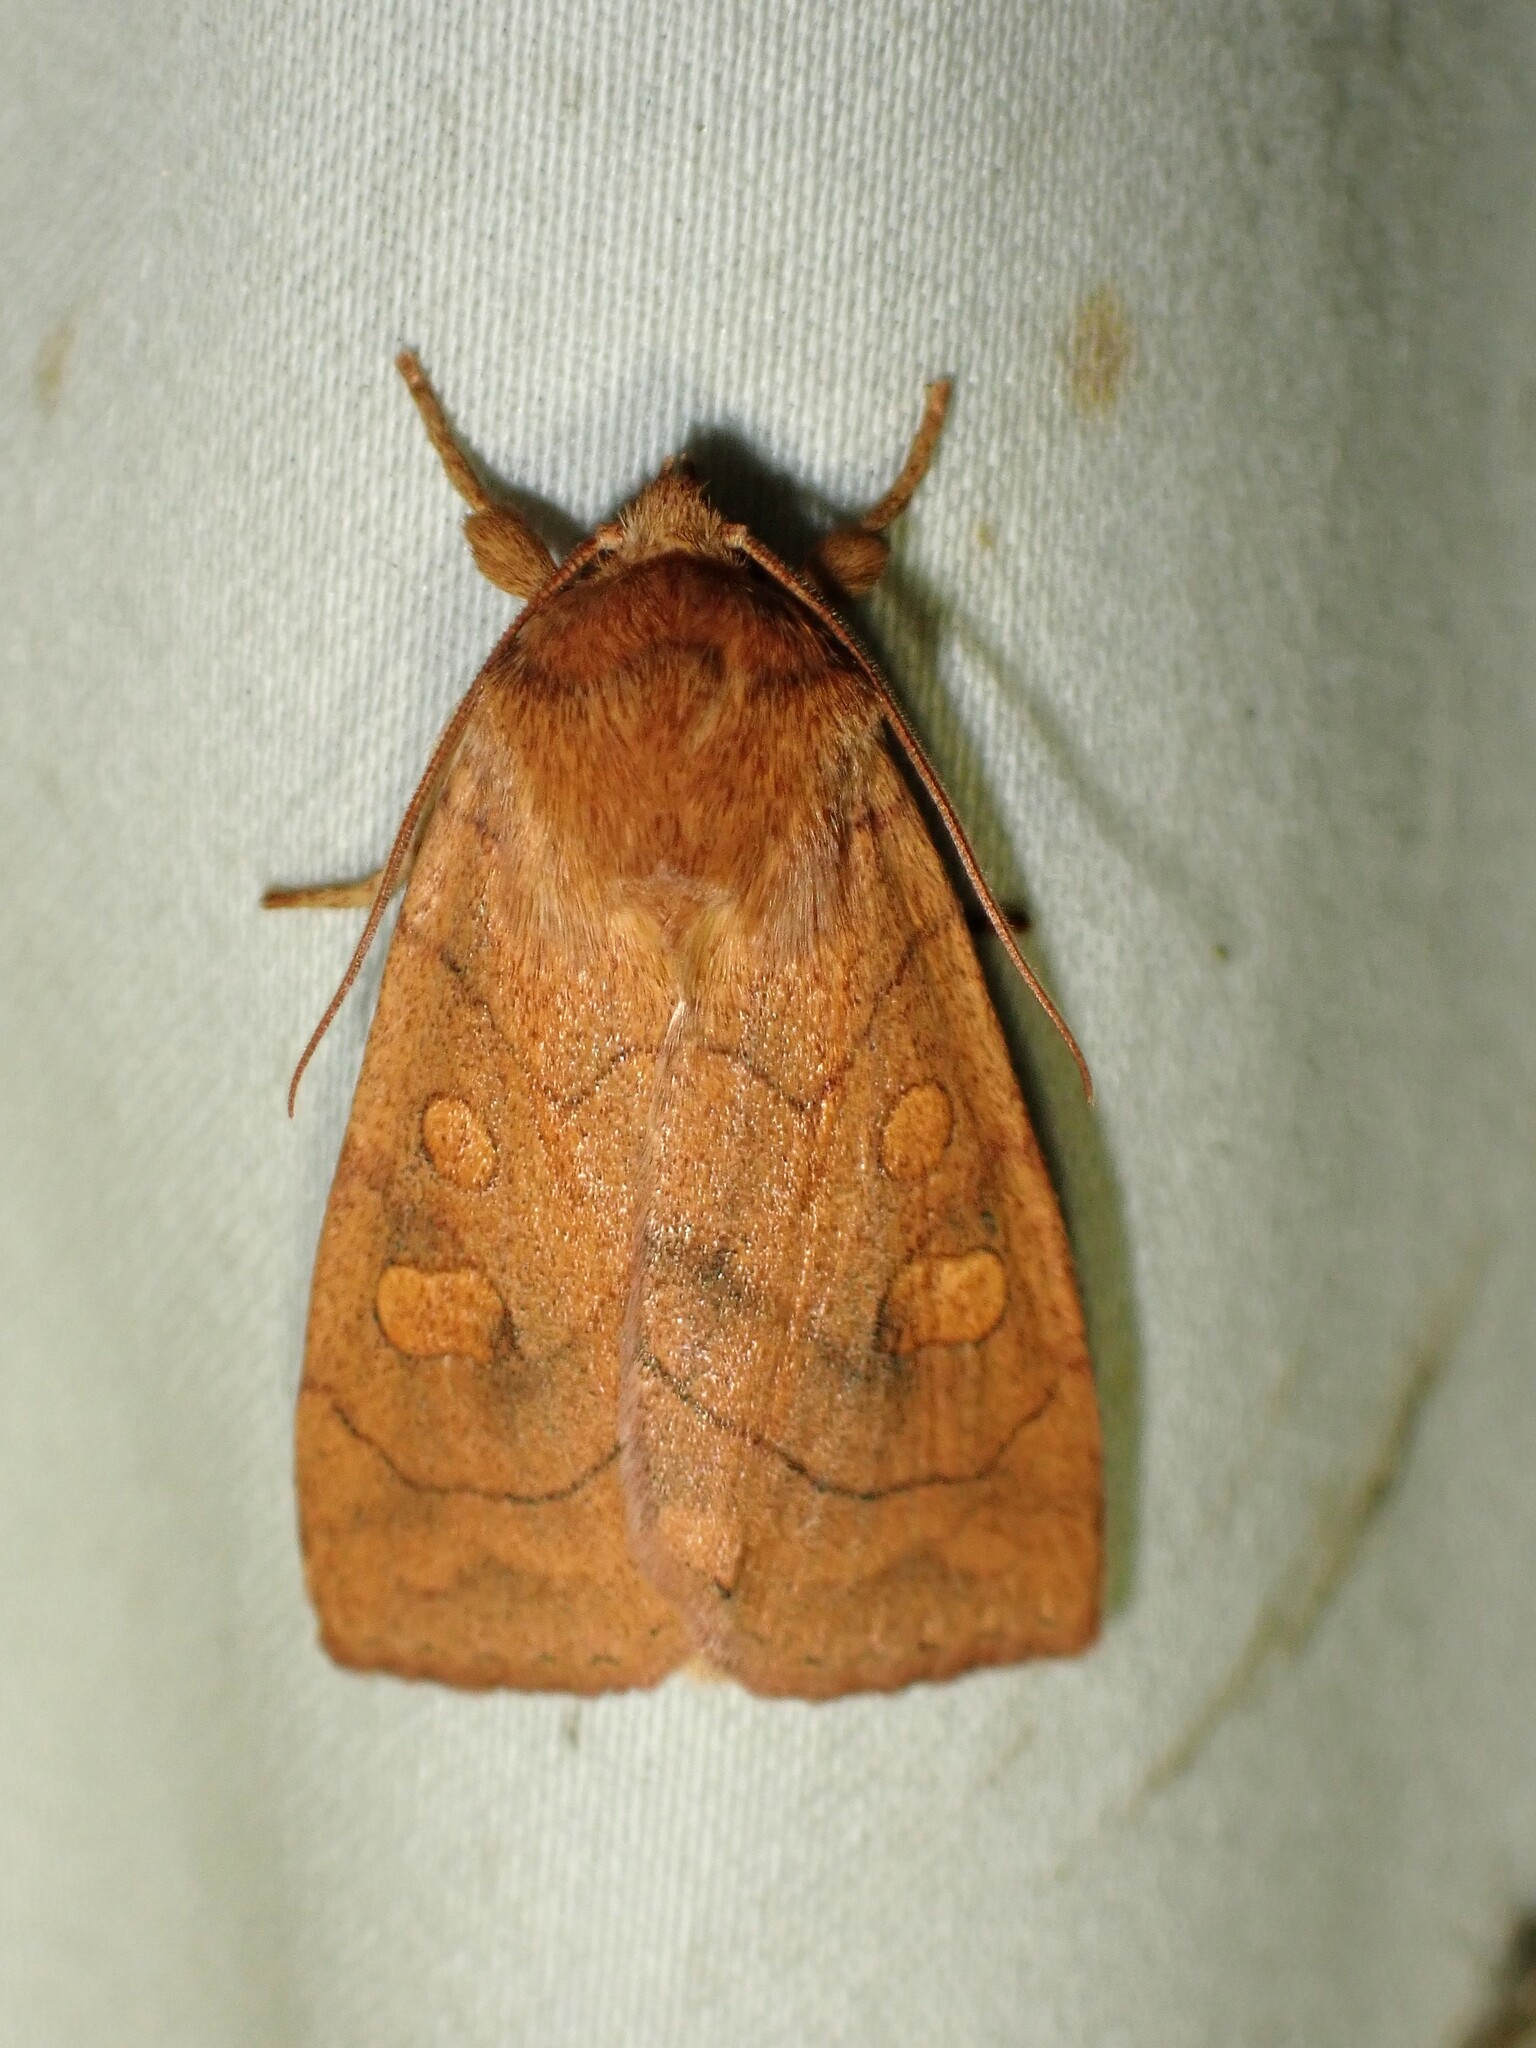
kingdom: Animalia
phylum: Arthropoda
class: Insecta
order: Lepidoptera
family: Noctuidae
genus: Enargia
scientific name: Enargia decolor
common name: Aspen twoleaf tier moth
